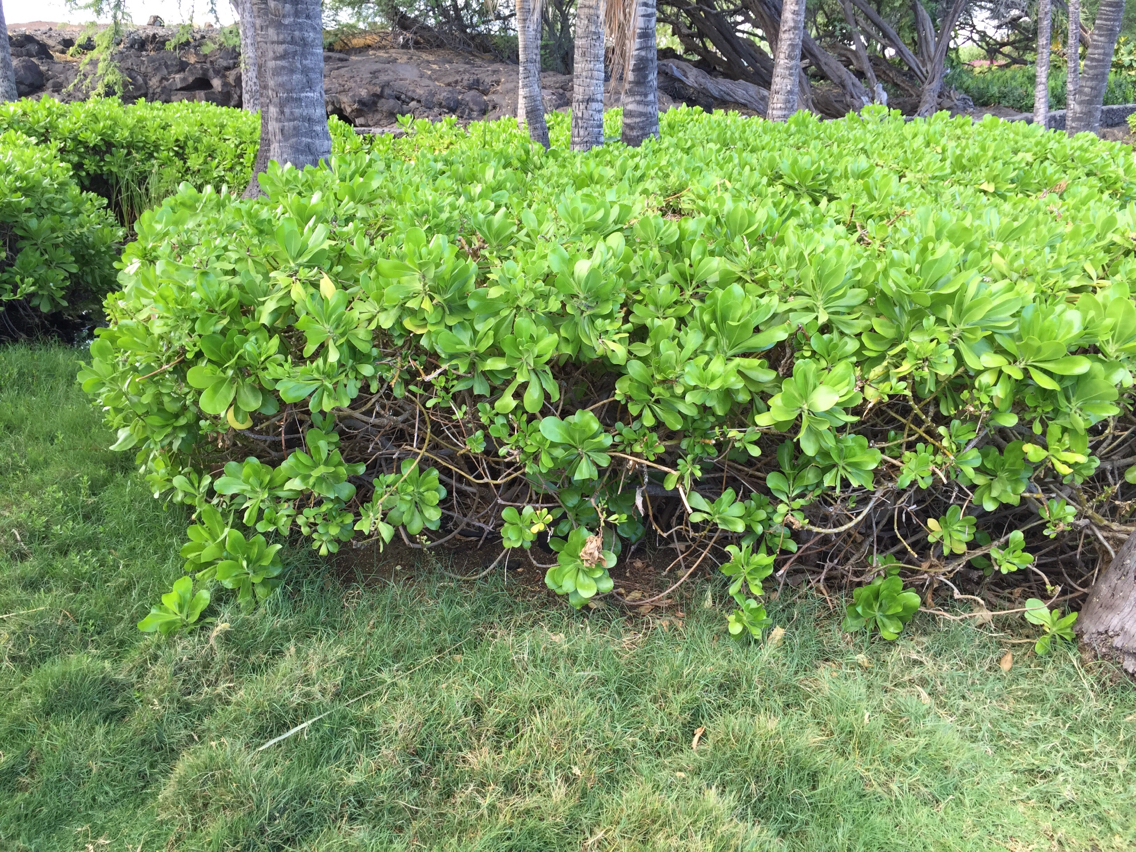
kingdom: Plantae
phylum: Tracheophyta
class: Magnoliopsida
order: Asterales
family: Goodeniaceae
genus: Scaevola
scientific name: Scaevola taccada
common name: Sea lettucetree
